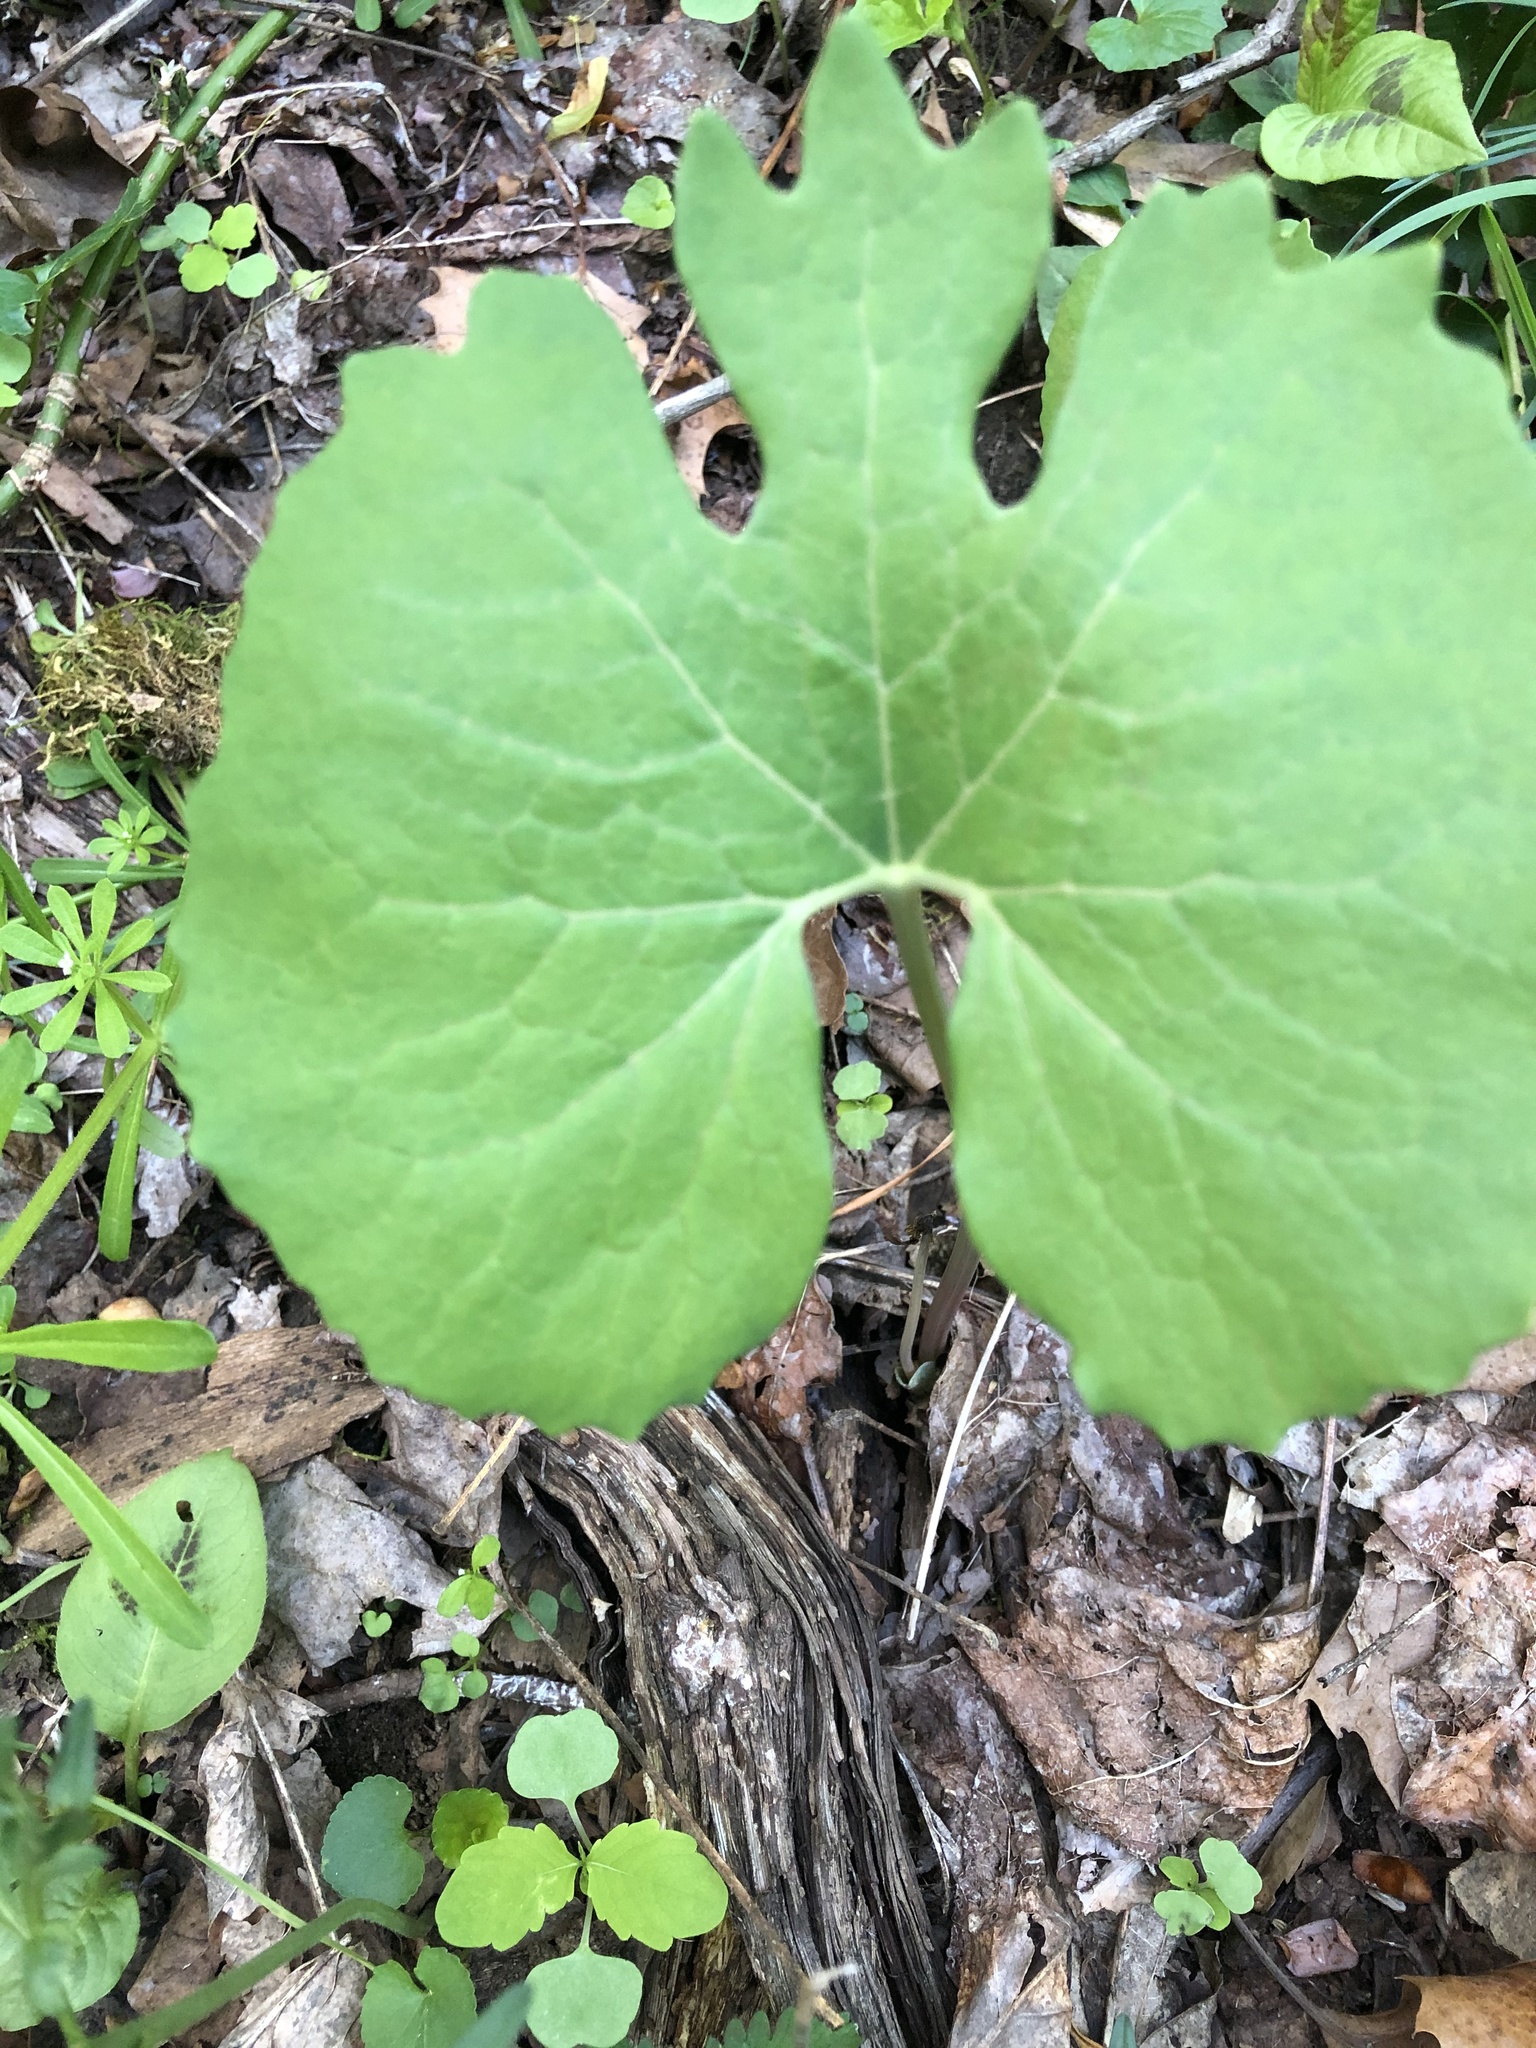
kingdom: Plantae
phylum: Tracheophyta
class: Magnoliopsida
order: Ranunculales
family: Papaveraceae
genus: Sanguinaria
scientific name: Sanguinaria canadensis
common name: Bloodroot
